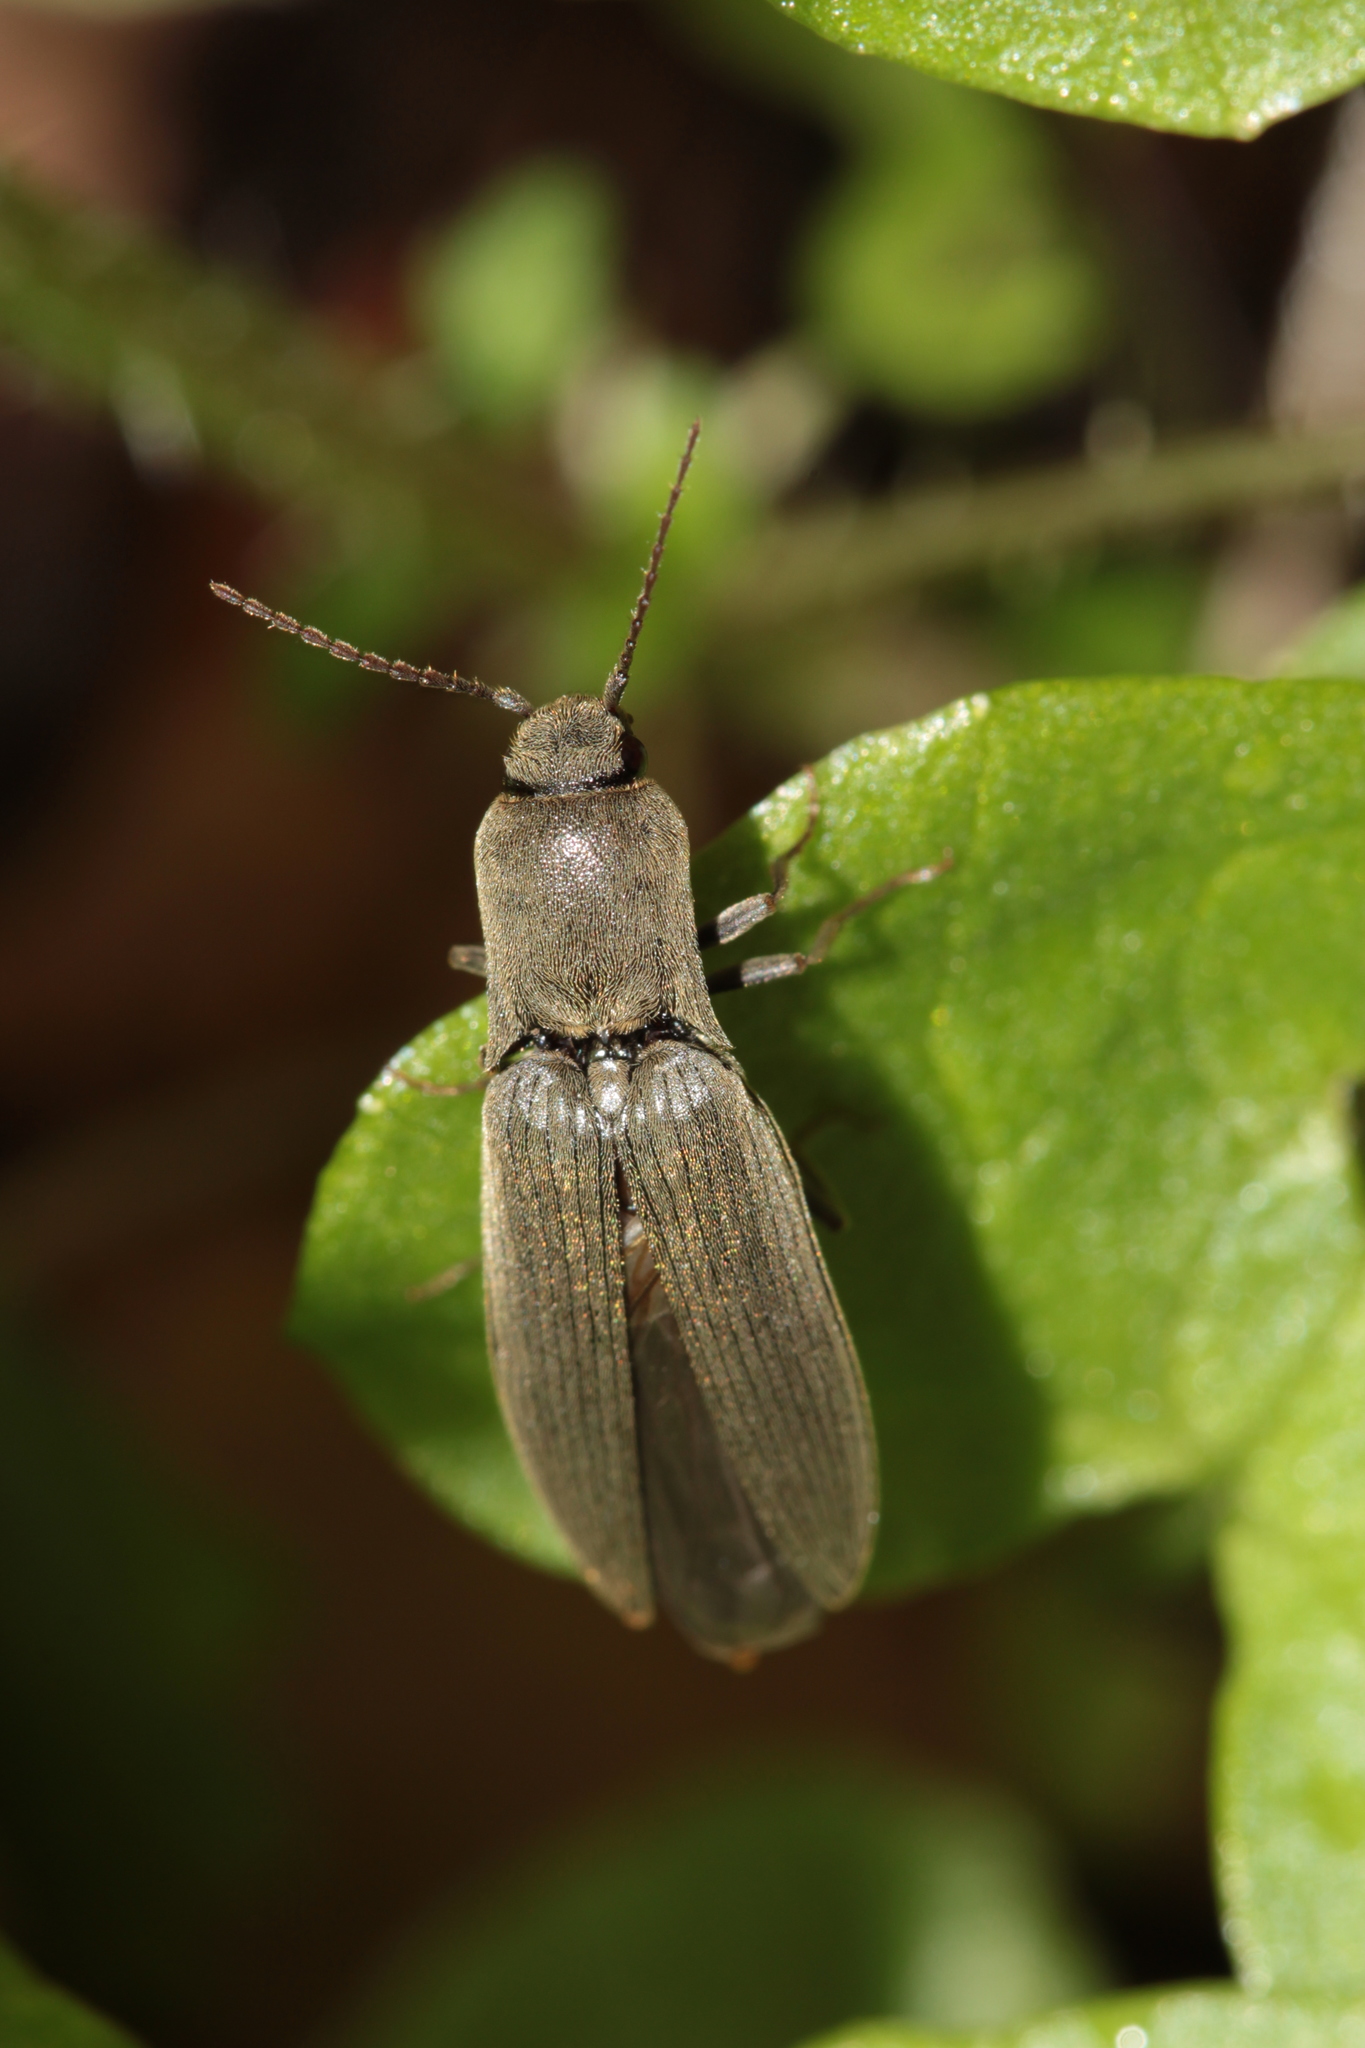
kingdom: Animalia
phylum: Arthropoda
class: Insecta
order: Coleoptera
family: Elateridae
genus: Agriotes
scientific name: Agriotes pilosellus
